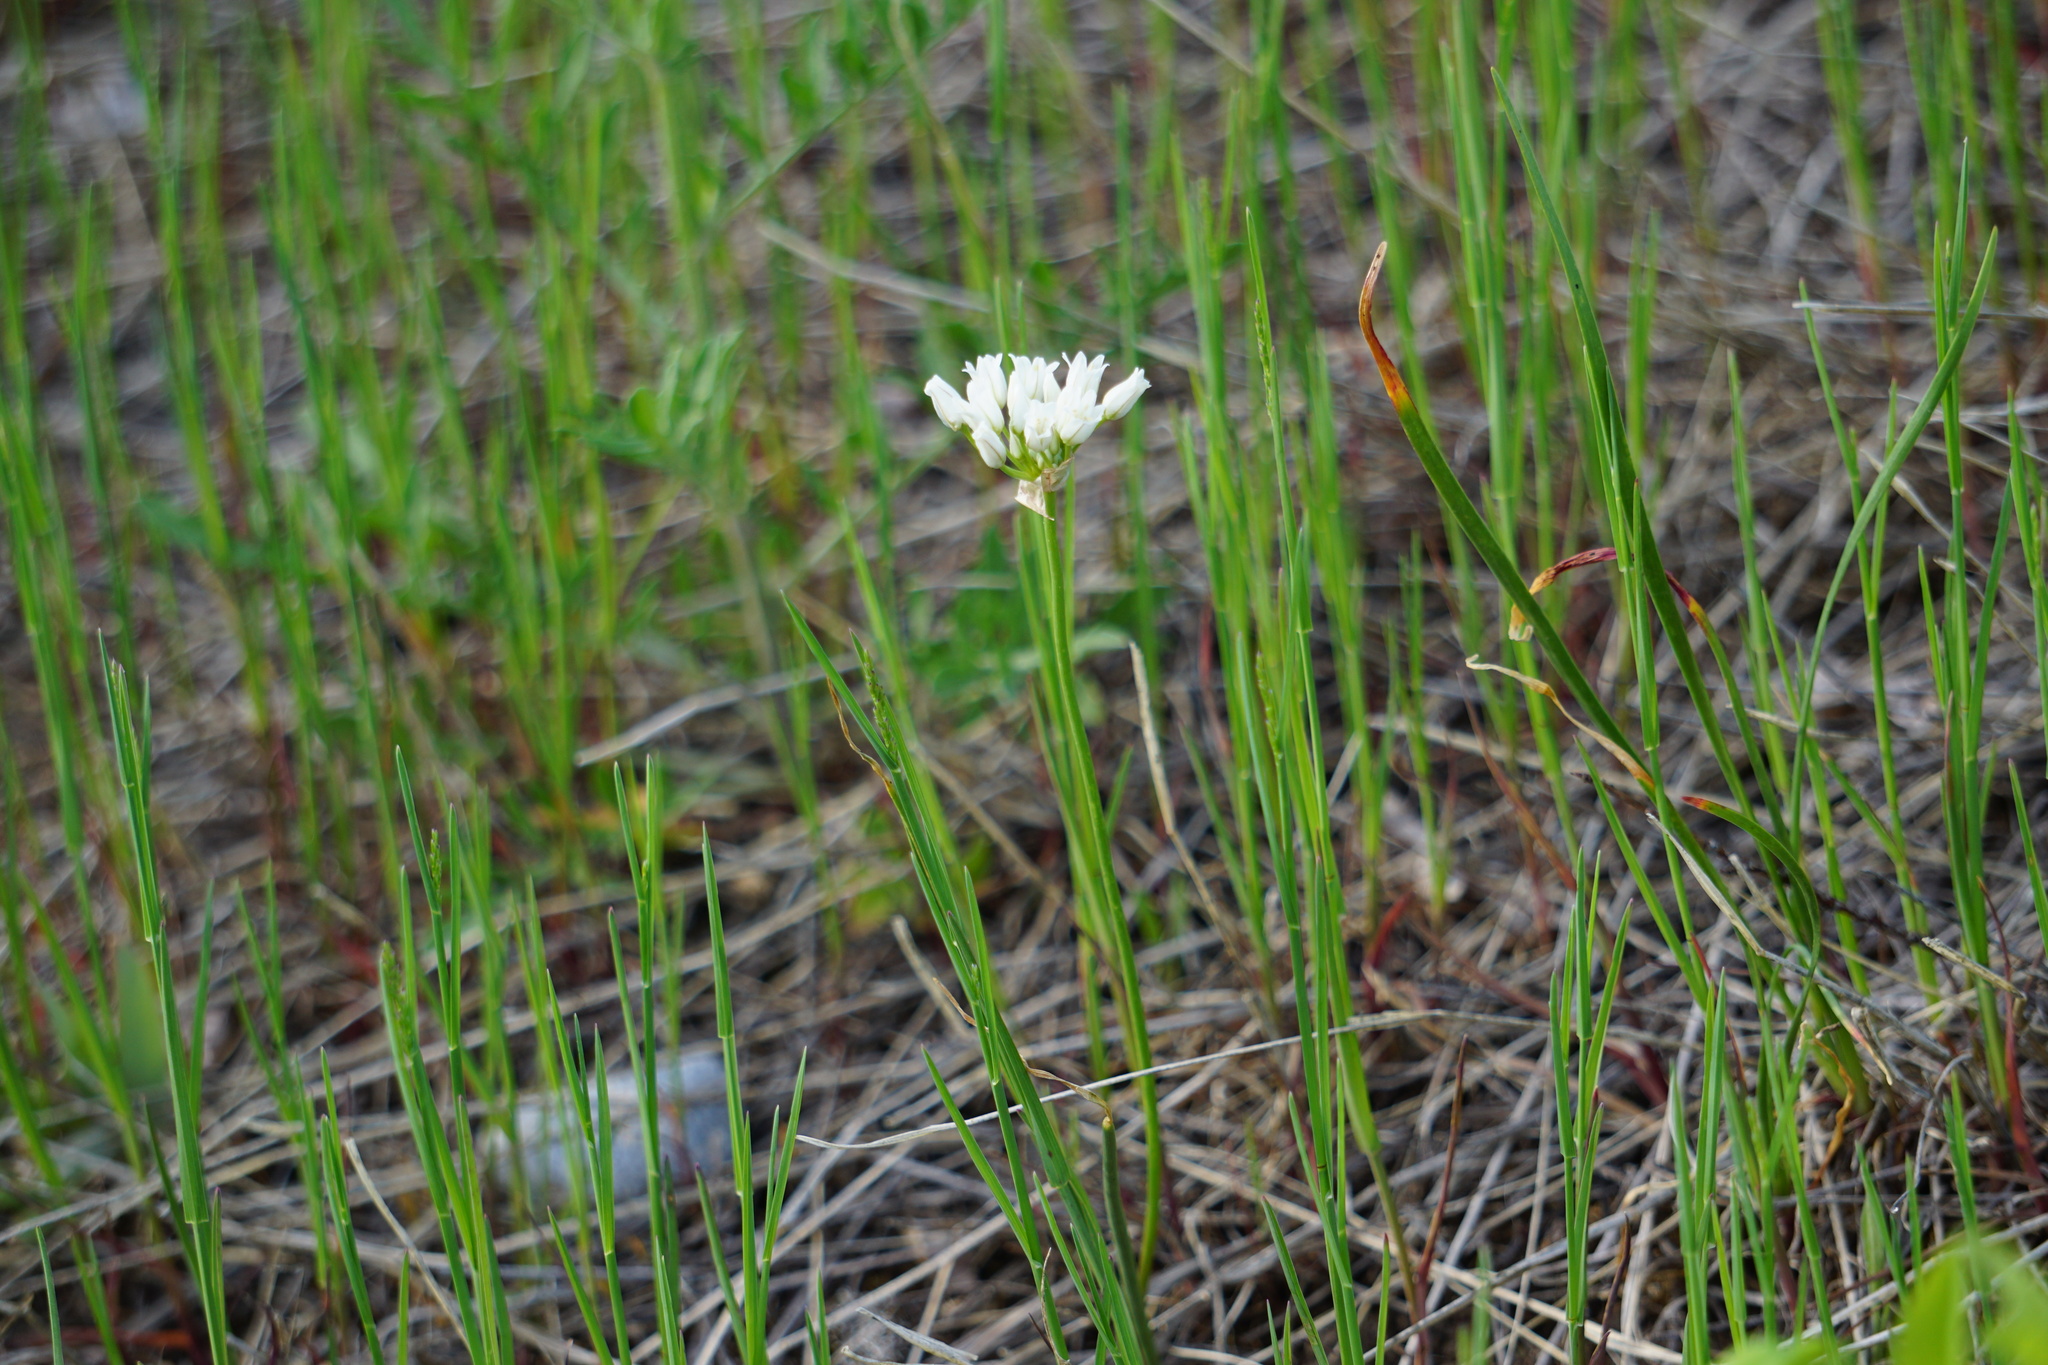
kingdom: Plantae
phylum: Tracheophyta
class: Liliopsida
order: Asparagales
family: Amaryllidaceae
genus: Allium
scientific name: Allium textile
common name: Prairie onion
